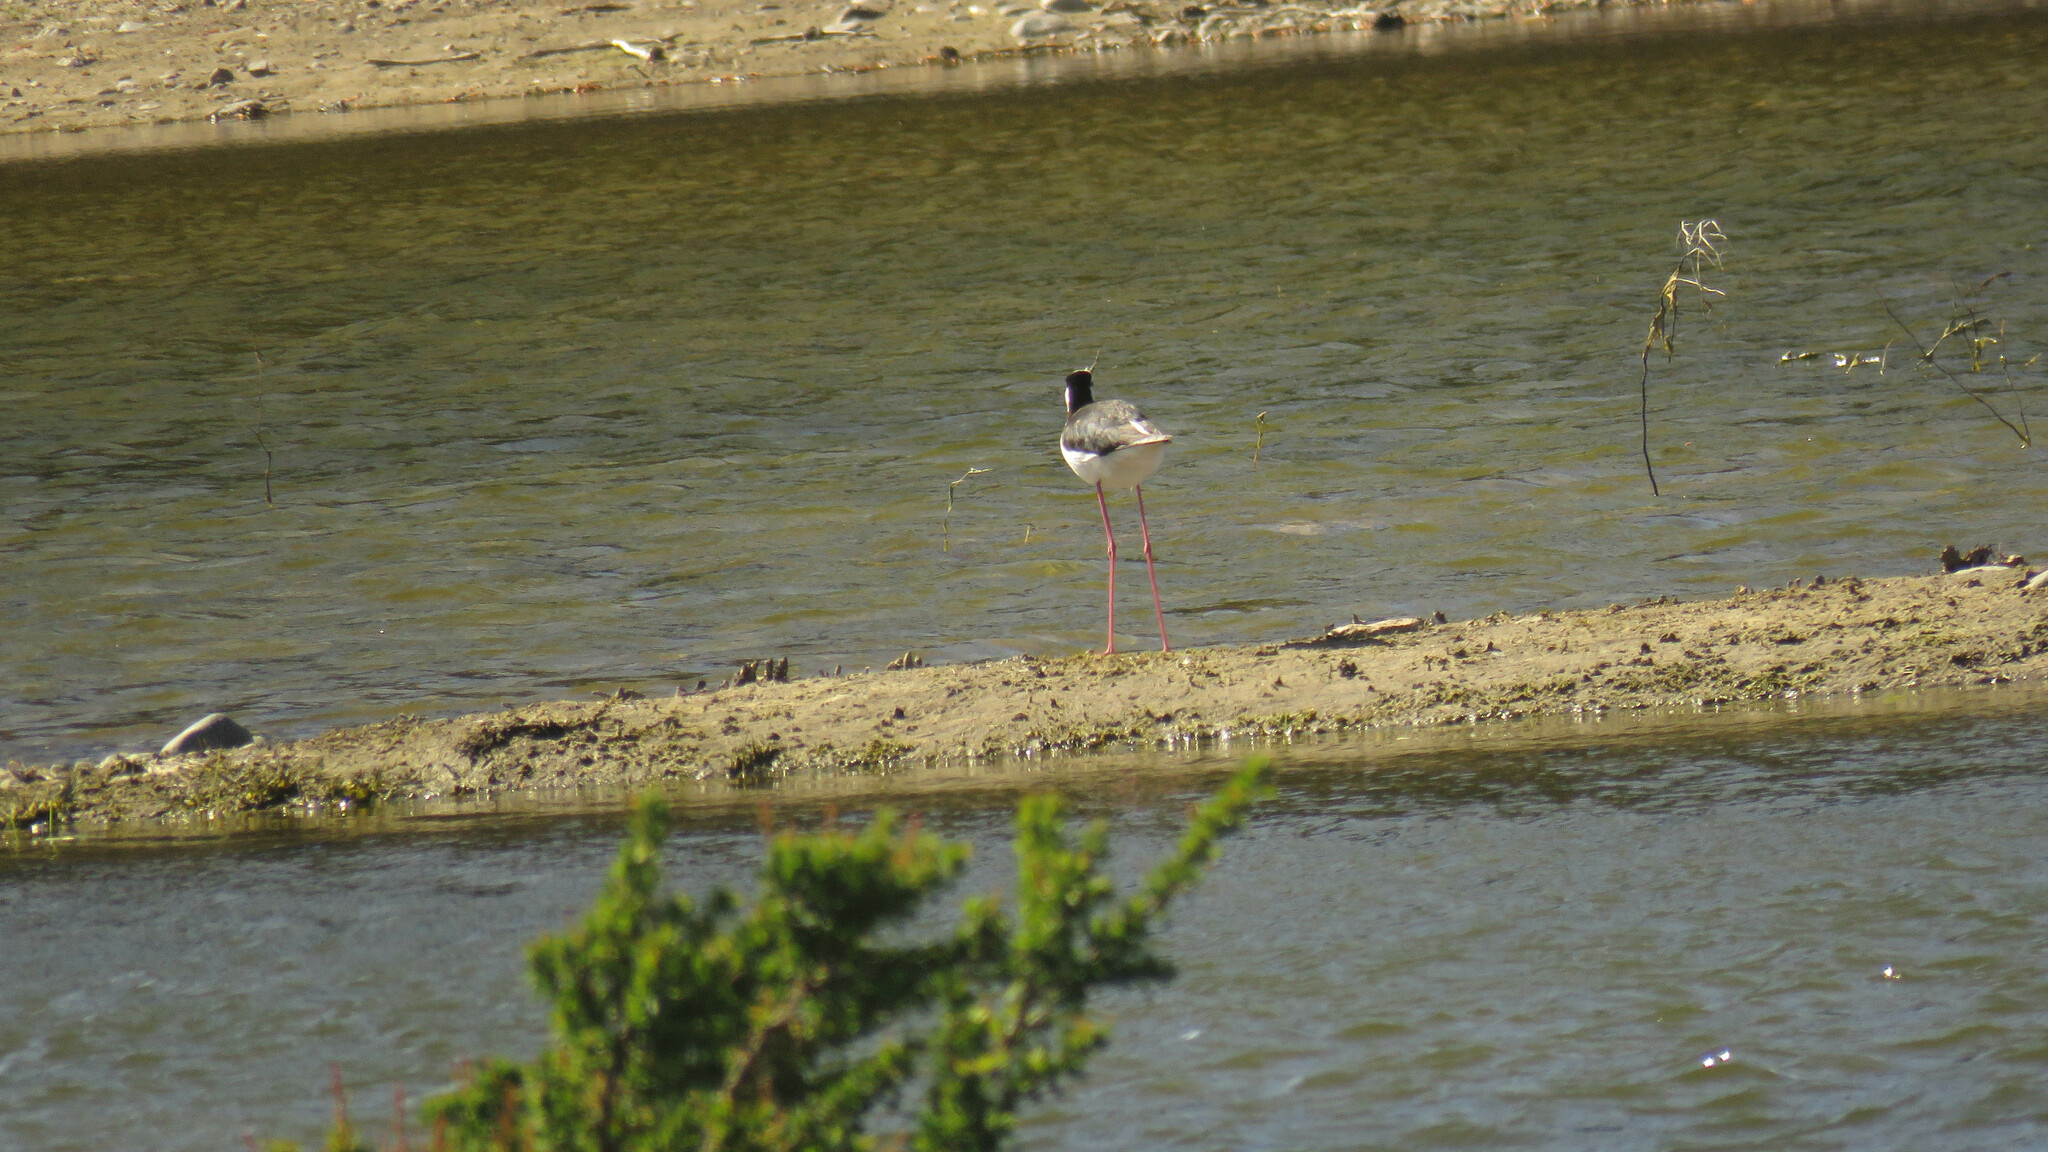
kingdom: Animalia
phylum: Chordata
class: Aves
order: Charadriiformes
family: Recurvirostridae
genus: Himantopus
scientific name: Himantopus mexicanus
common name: Black-necked stilt
